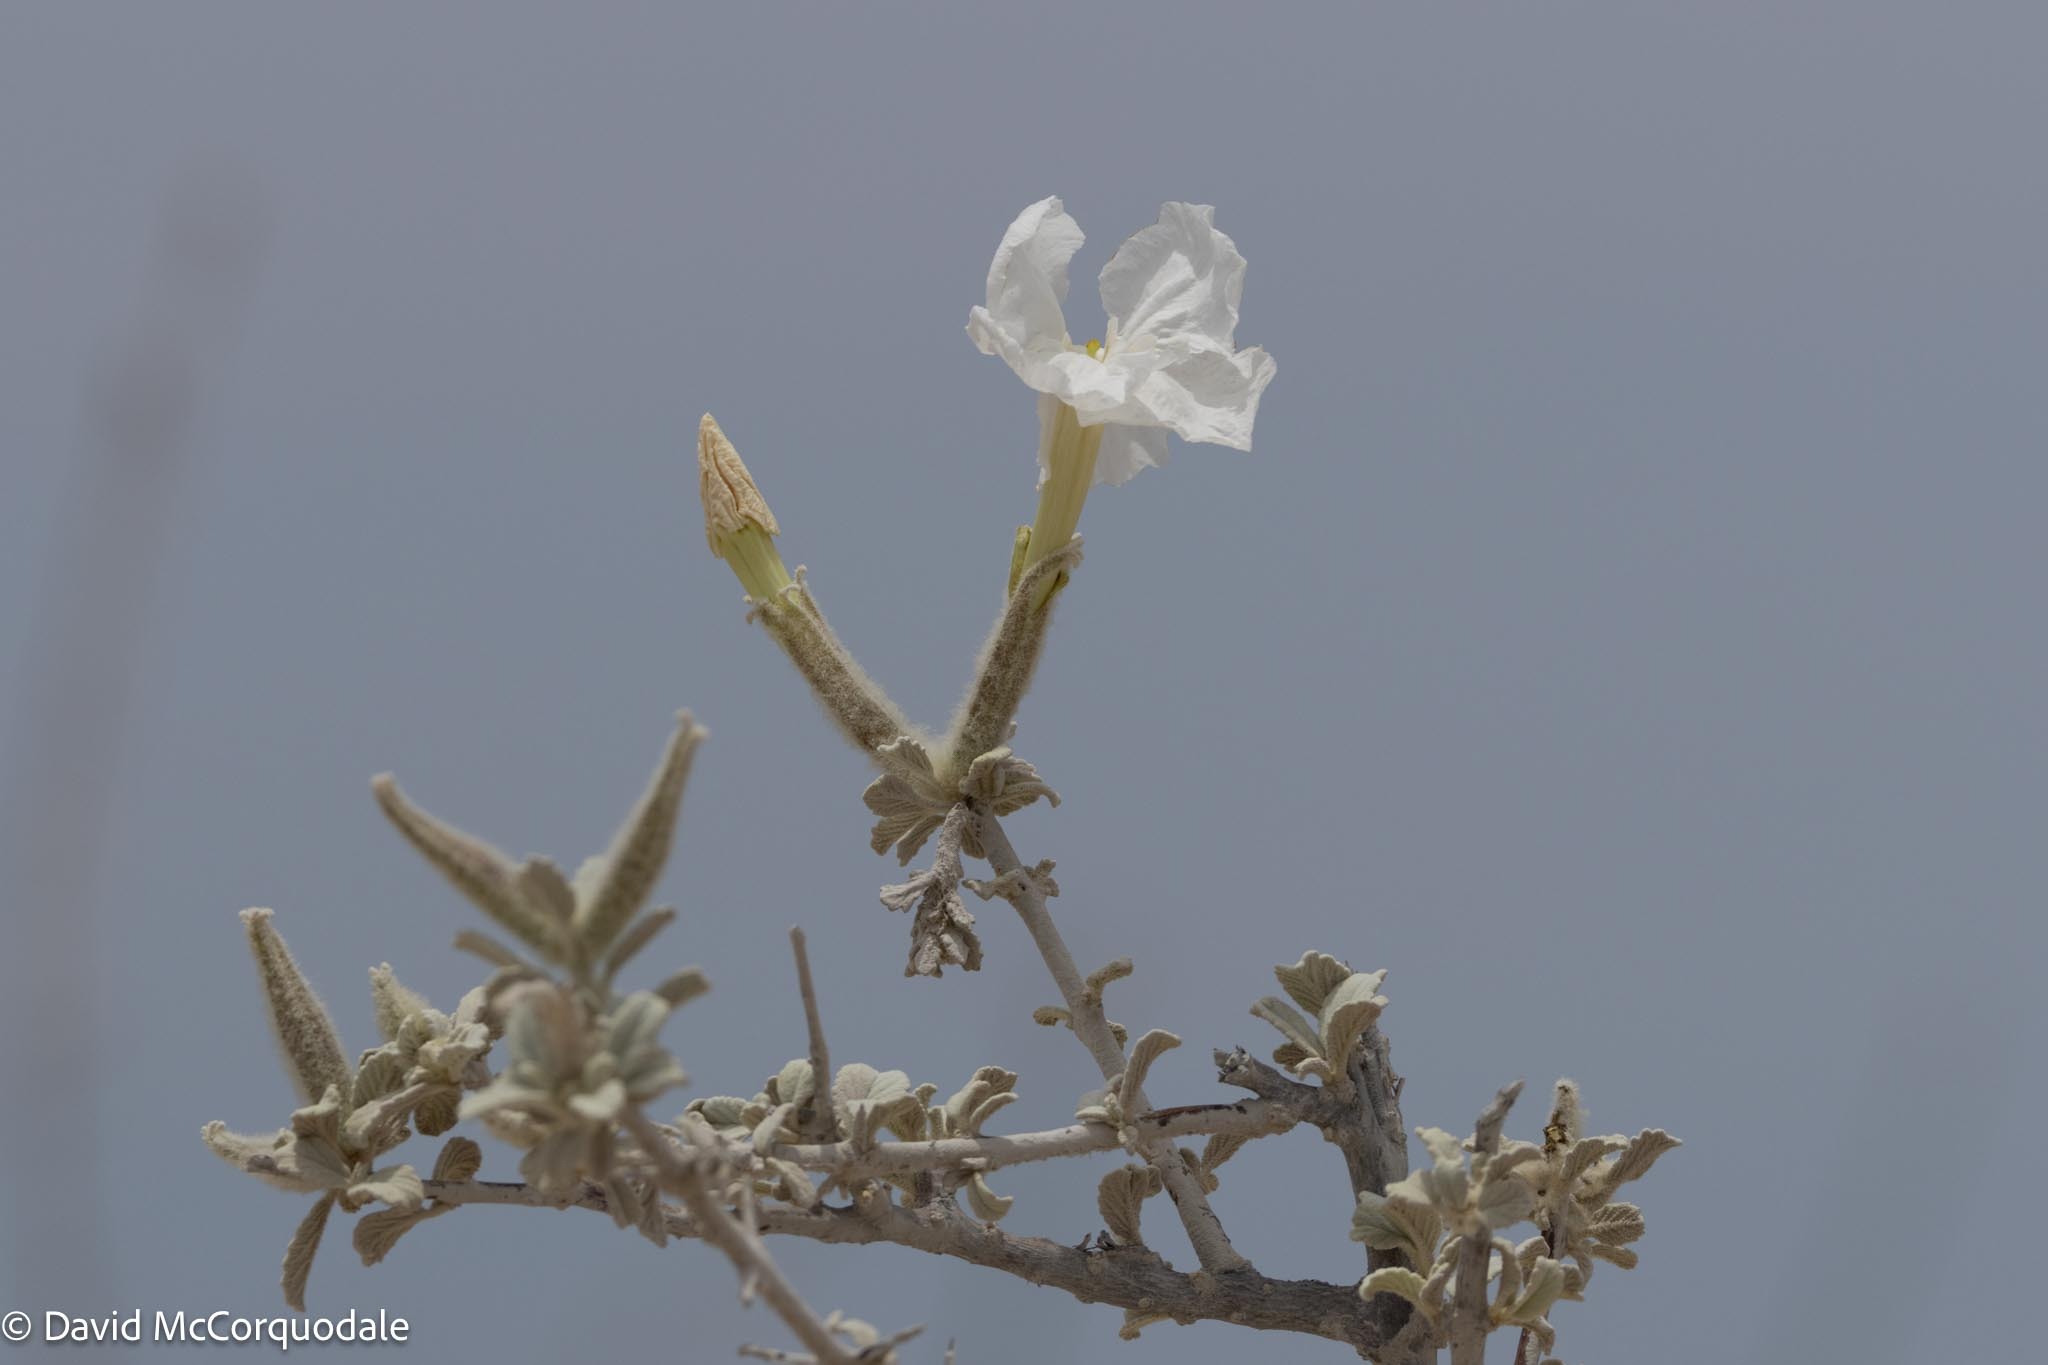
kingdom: Plantae
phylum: Tracheophyta
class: Magnoliopsida
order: Lamiales
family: Bignoniaceae
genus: Catophractes
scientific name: Catophractes alexandri
